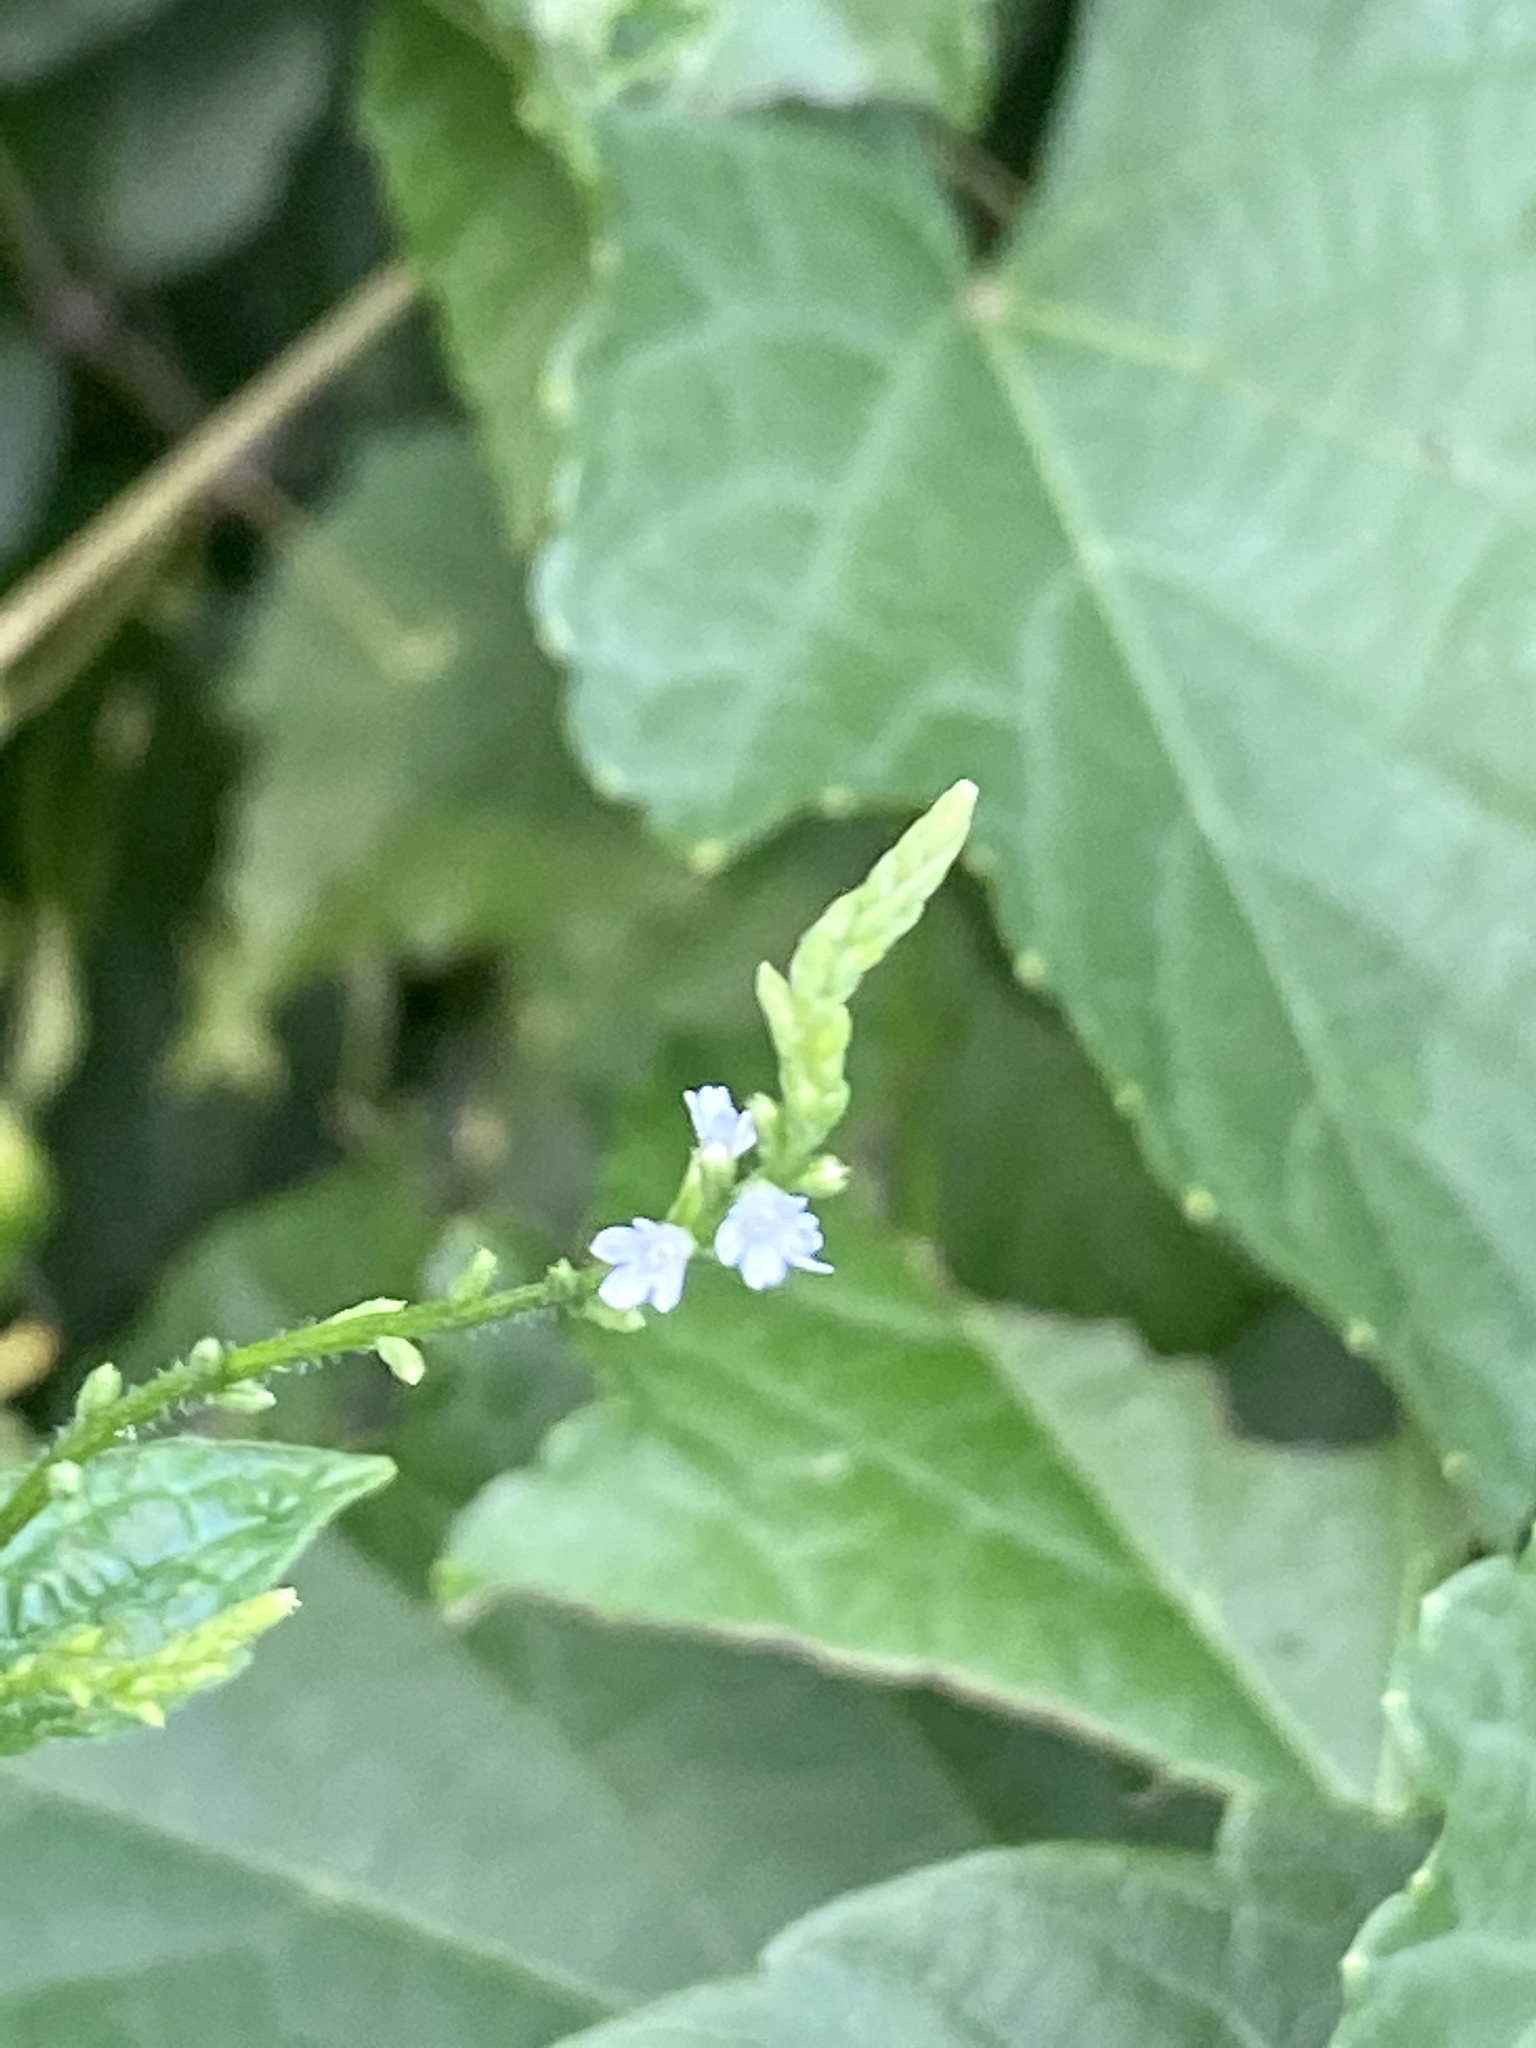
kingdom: Plantae
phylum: Tracheophyta
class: Magnoliopsida
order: Lamiales
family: Verbenaceae
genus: Verbena
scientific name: Verbena urticifolia
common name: Nettle-leaved vervain
